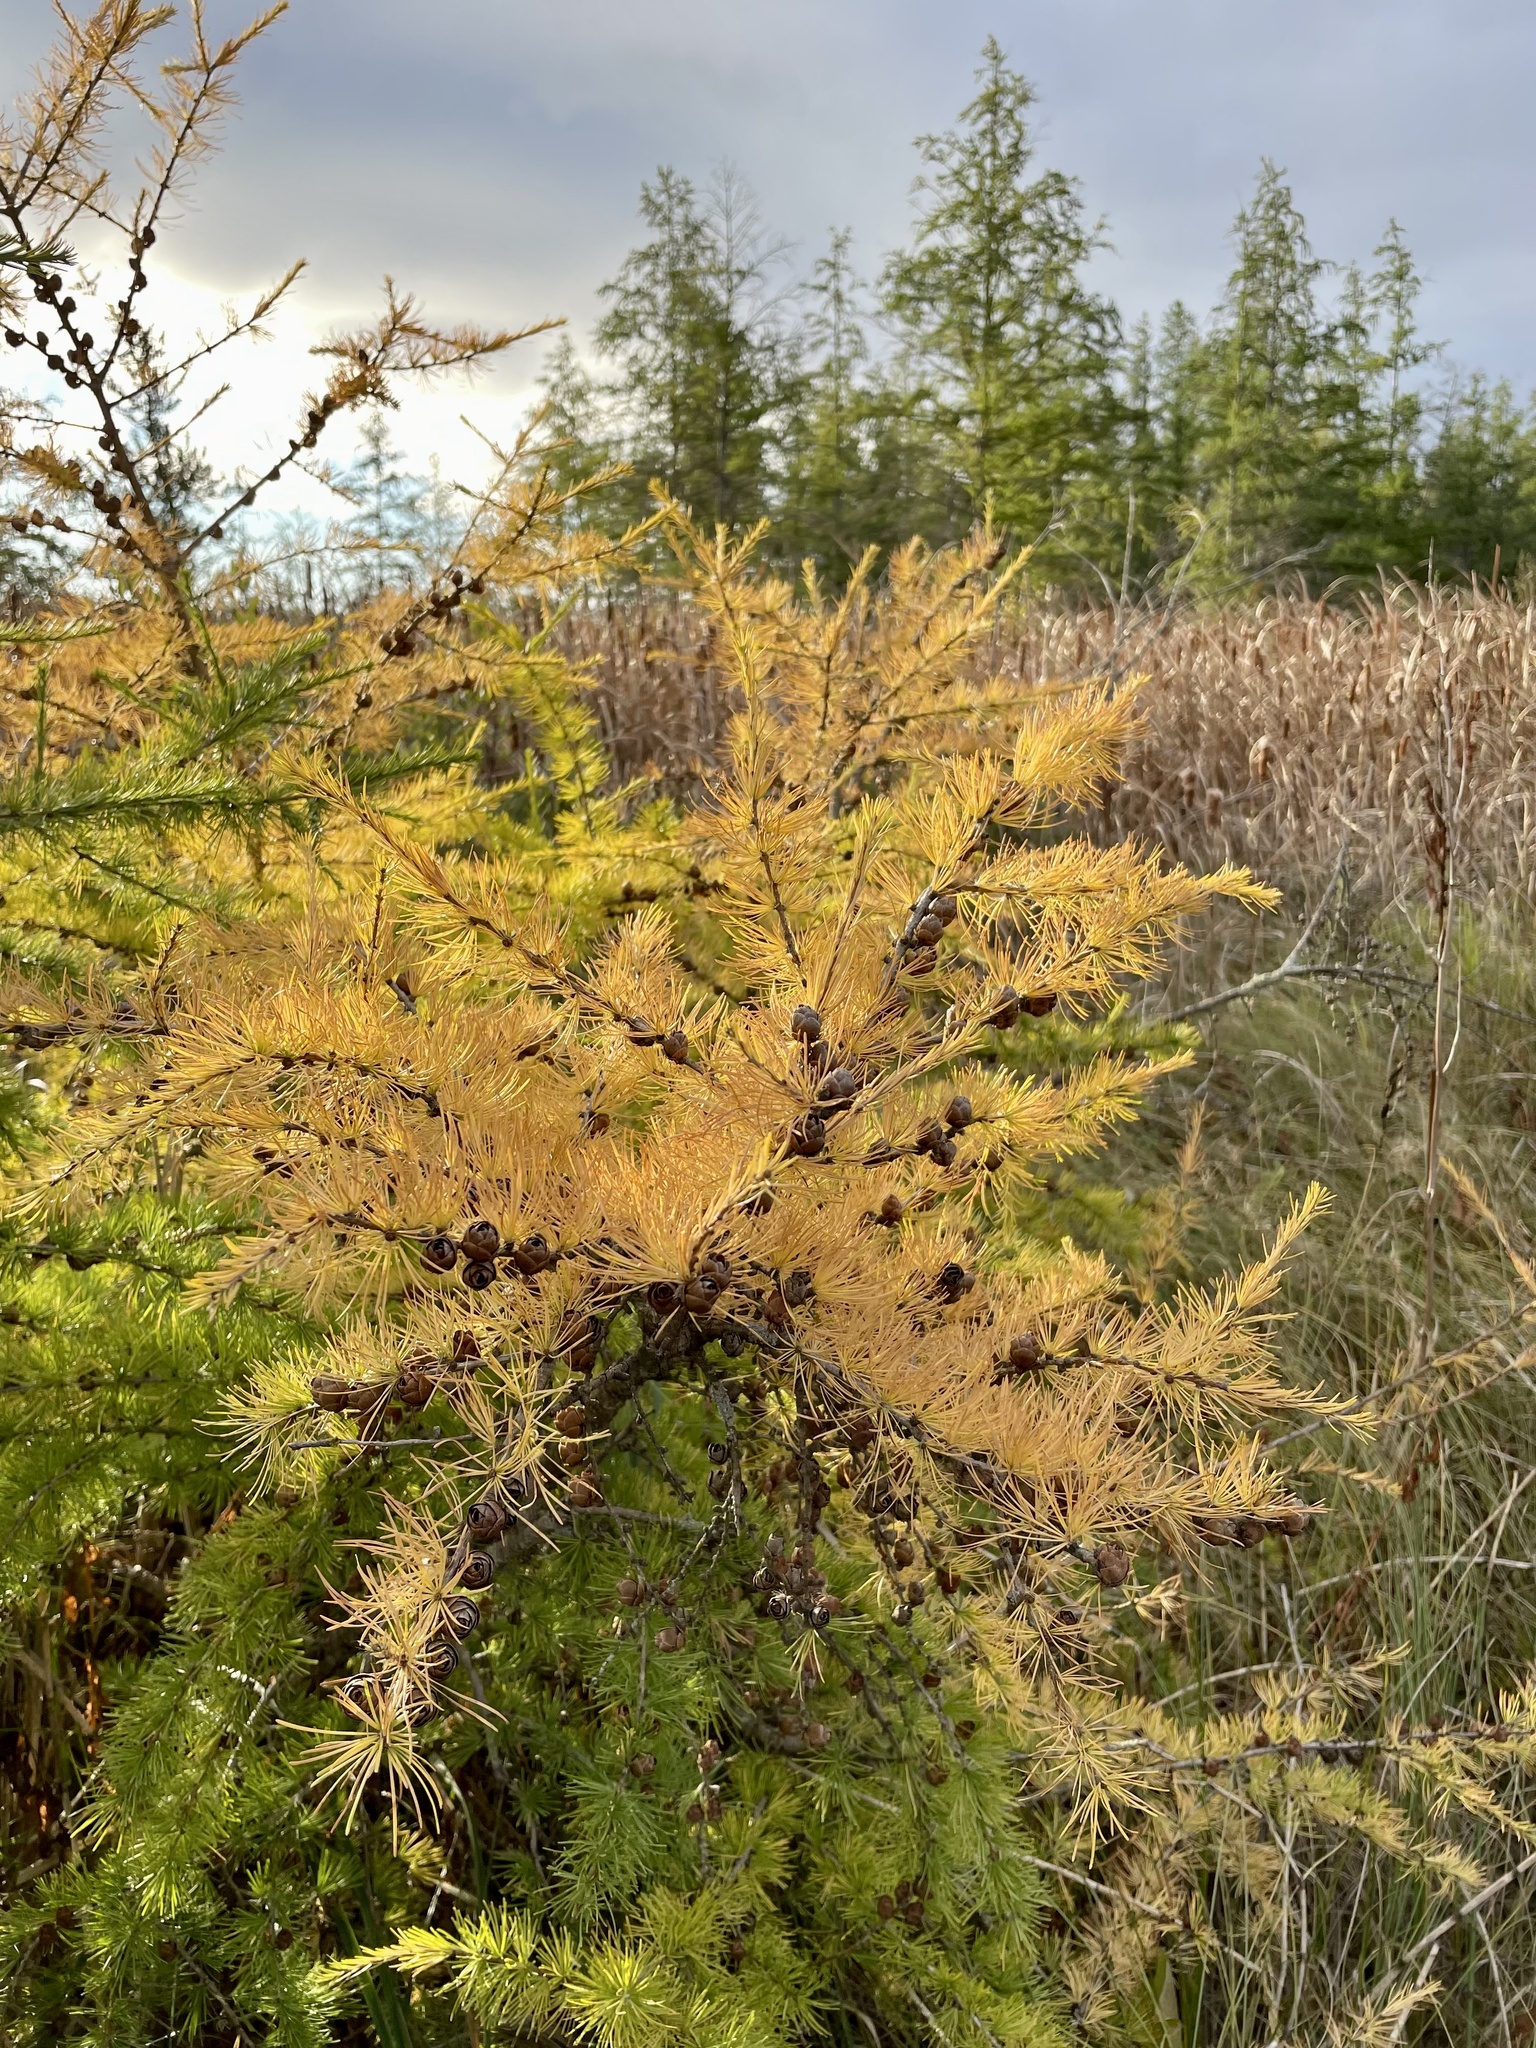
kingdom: Plantae
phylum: Tracheophyta
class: Pinopsida
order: Pinales
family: Pinaceae
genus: Larix
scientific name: Larix laricina
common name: American larch
